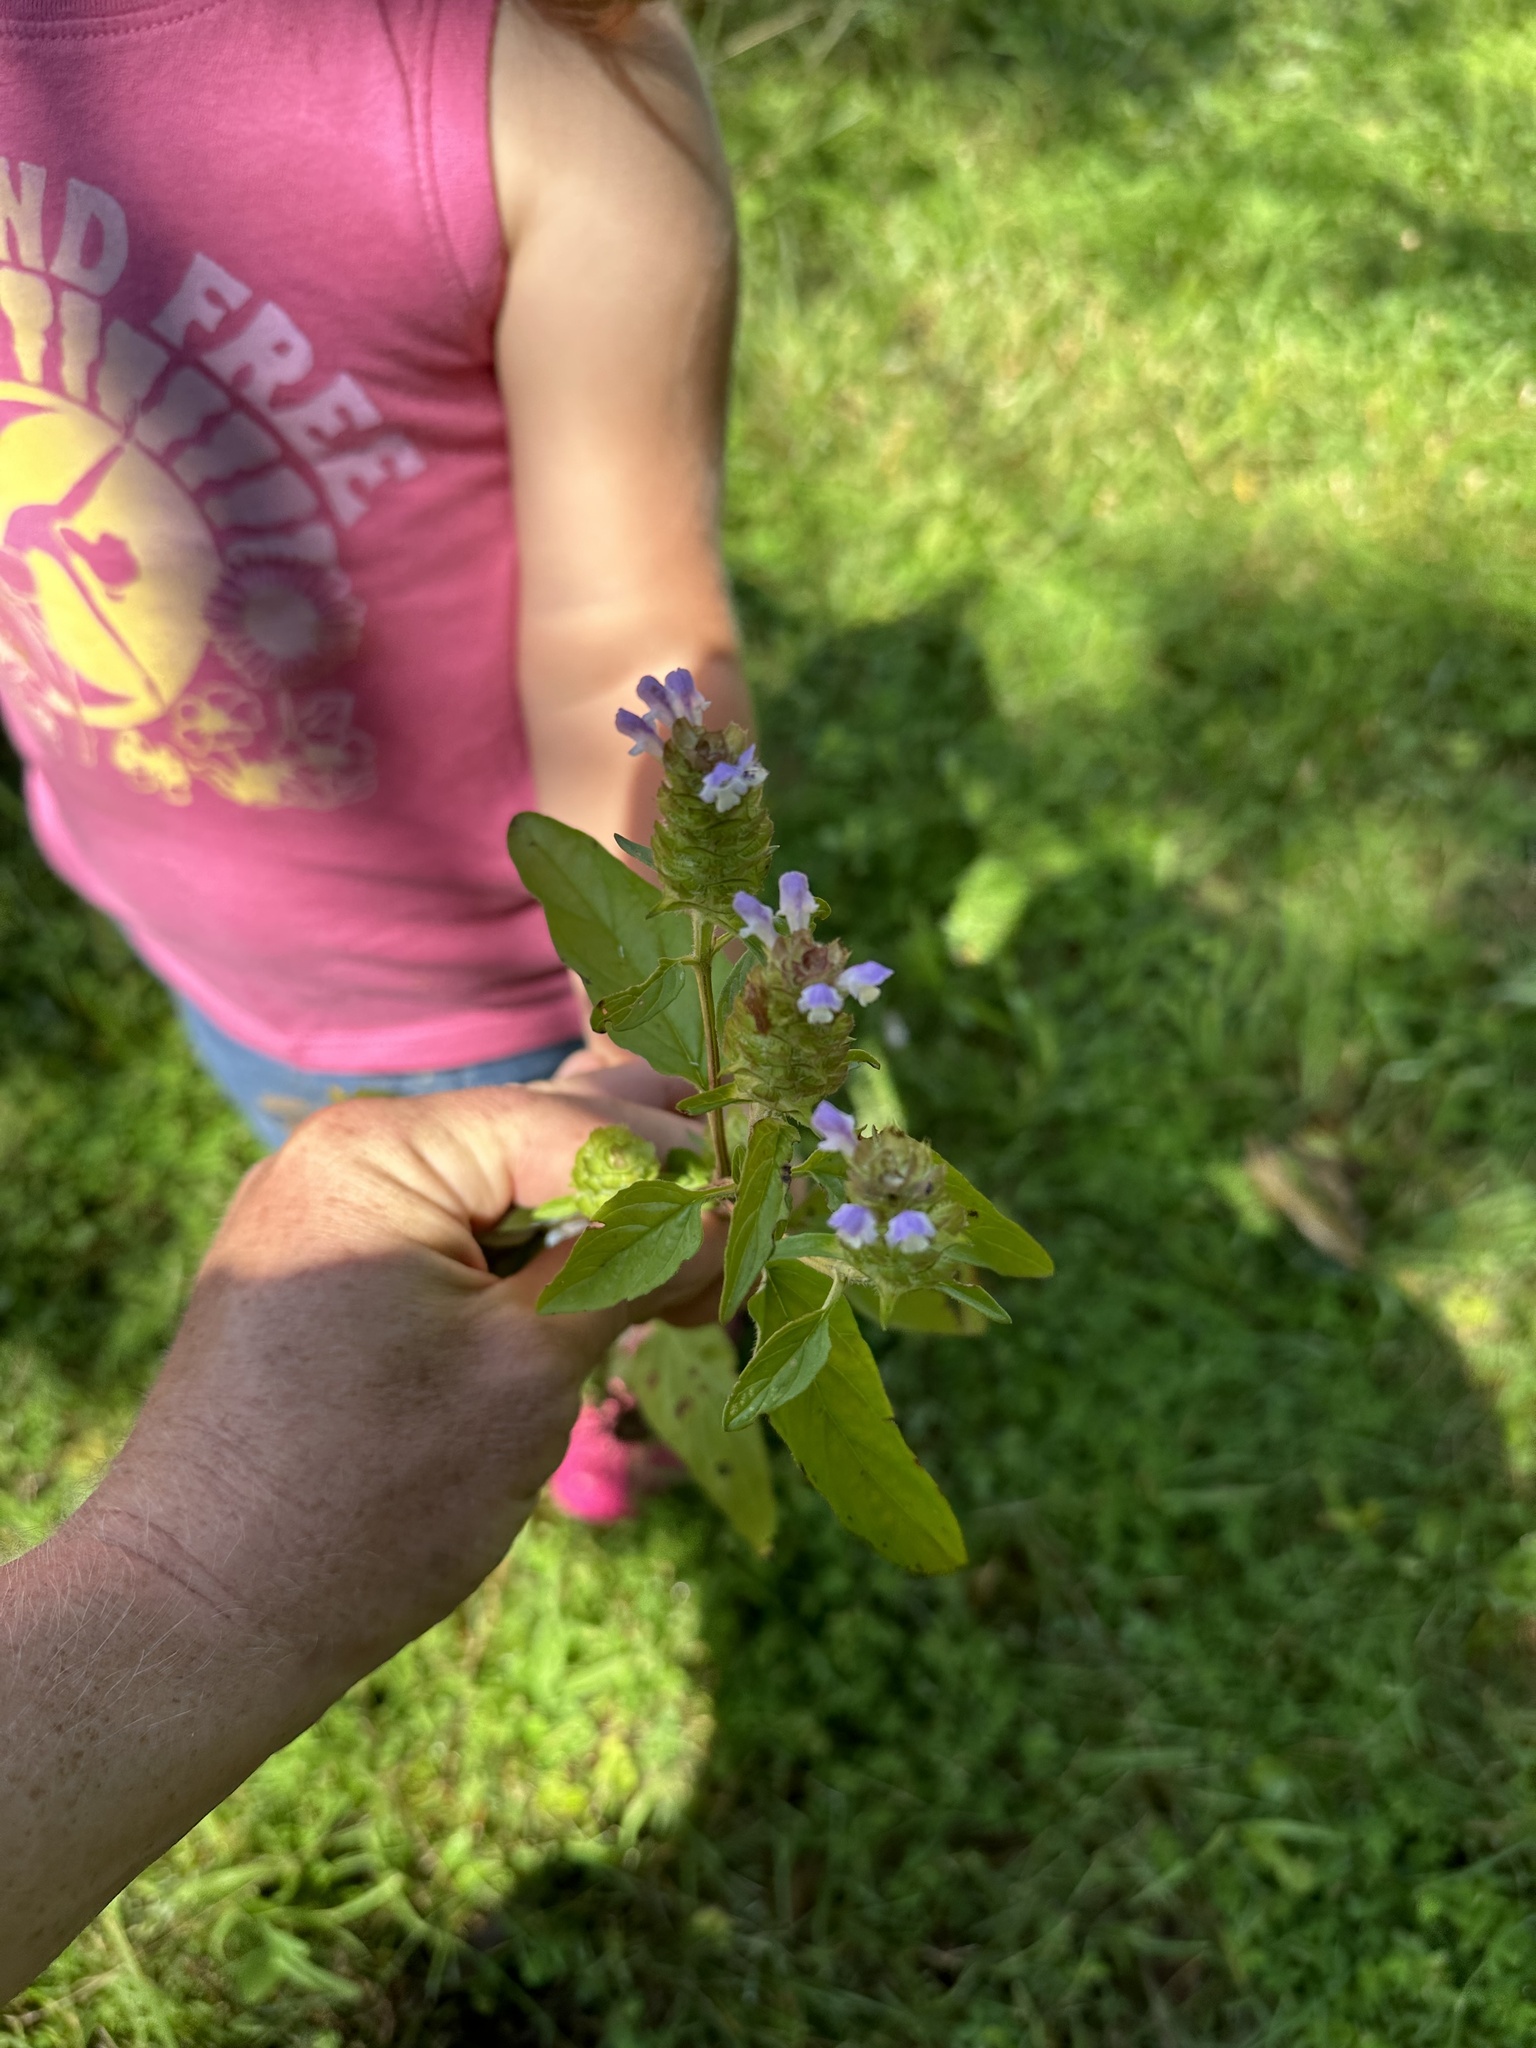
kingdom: Plantae
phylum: Tracheophyta
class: Magnoliopsida
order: Lamiales
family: Lamiaceae
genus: Prunella
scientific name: Prunella vulgaris
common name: Heal-all
